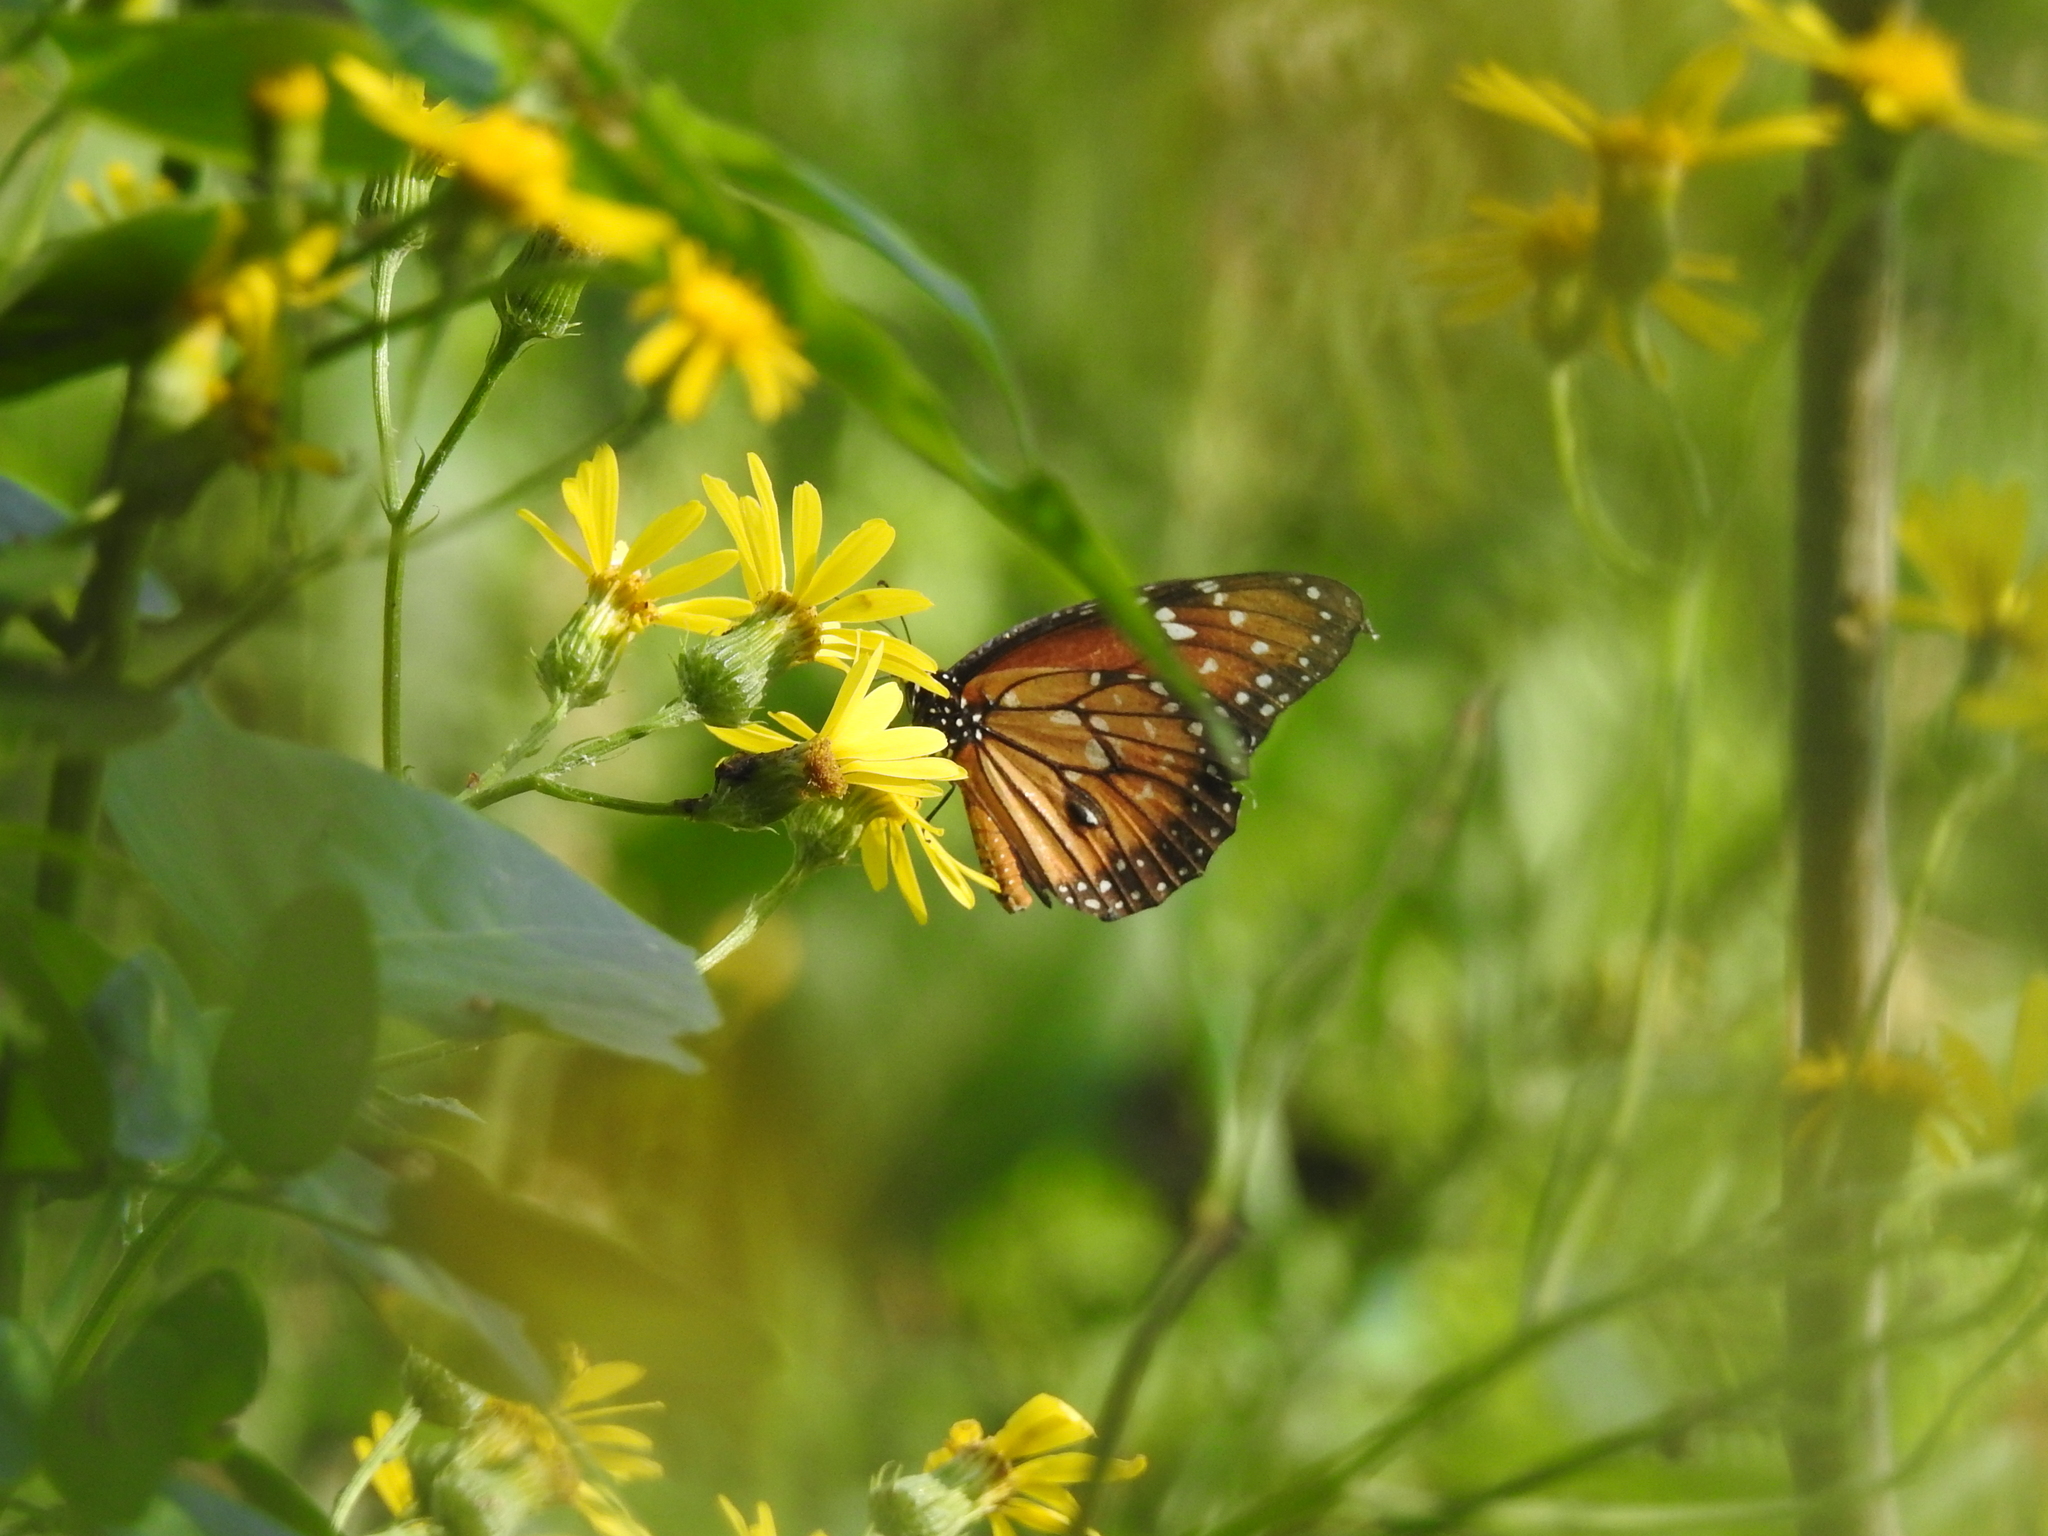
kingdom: Animalia
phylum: Arthropoda
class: Insecta
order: Lepidoptera
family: Nymphalidae
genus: Danaus
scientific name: Danaus eresimus
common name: Soldier
